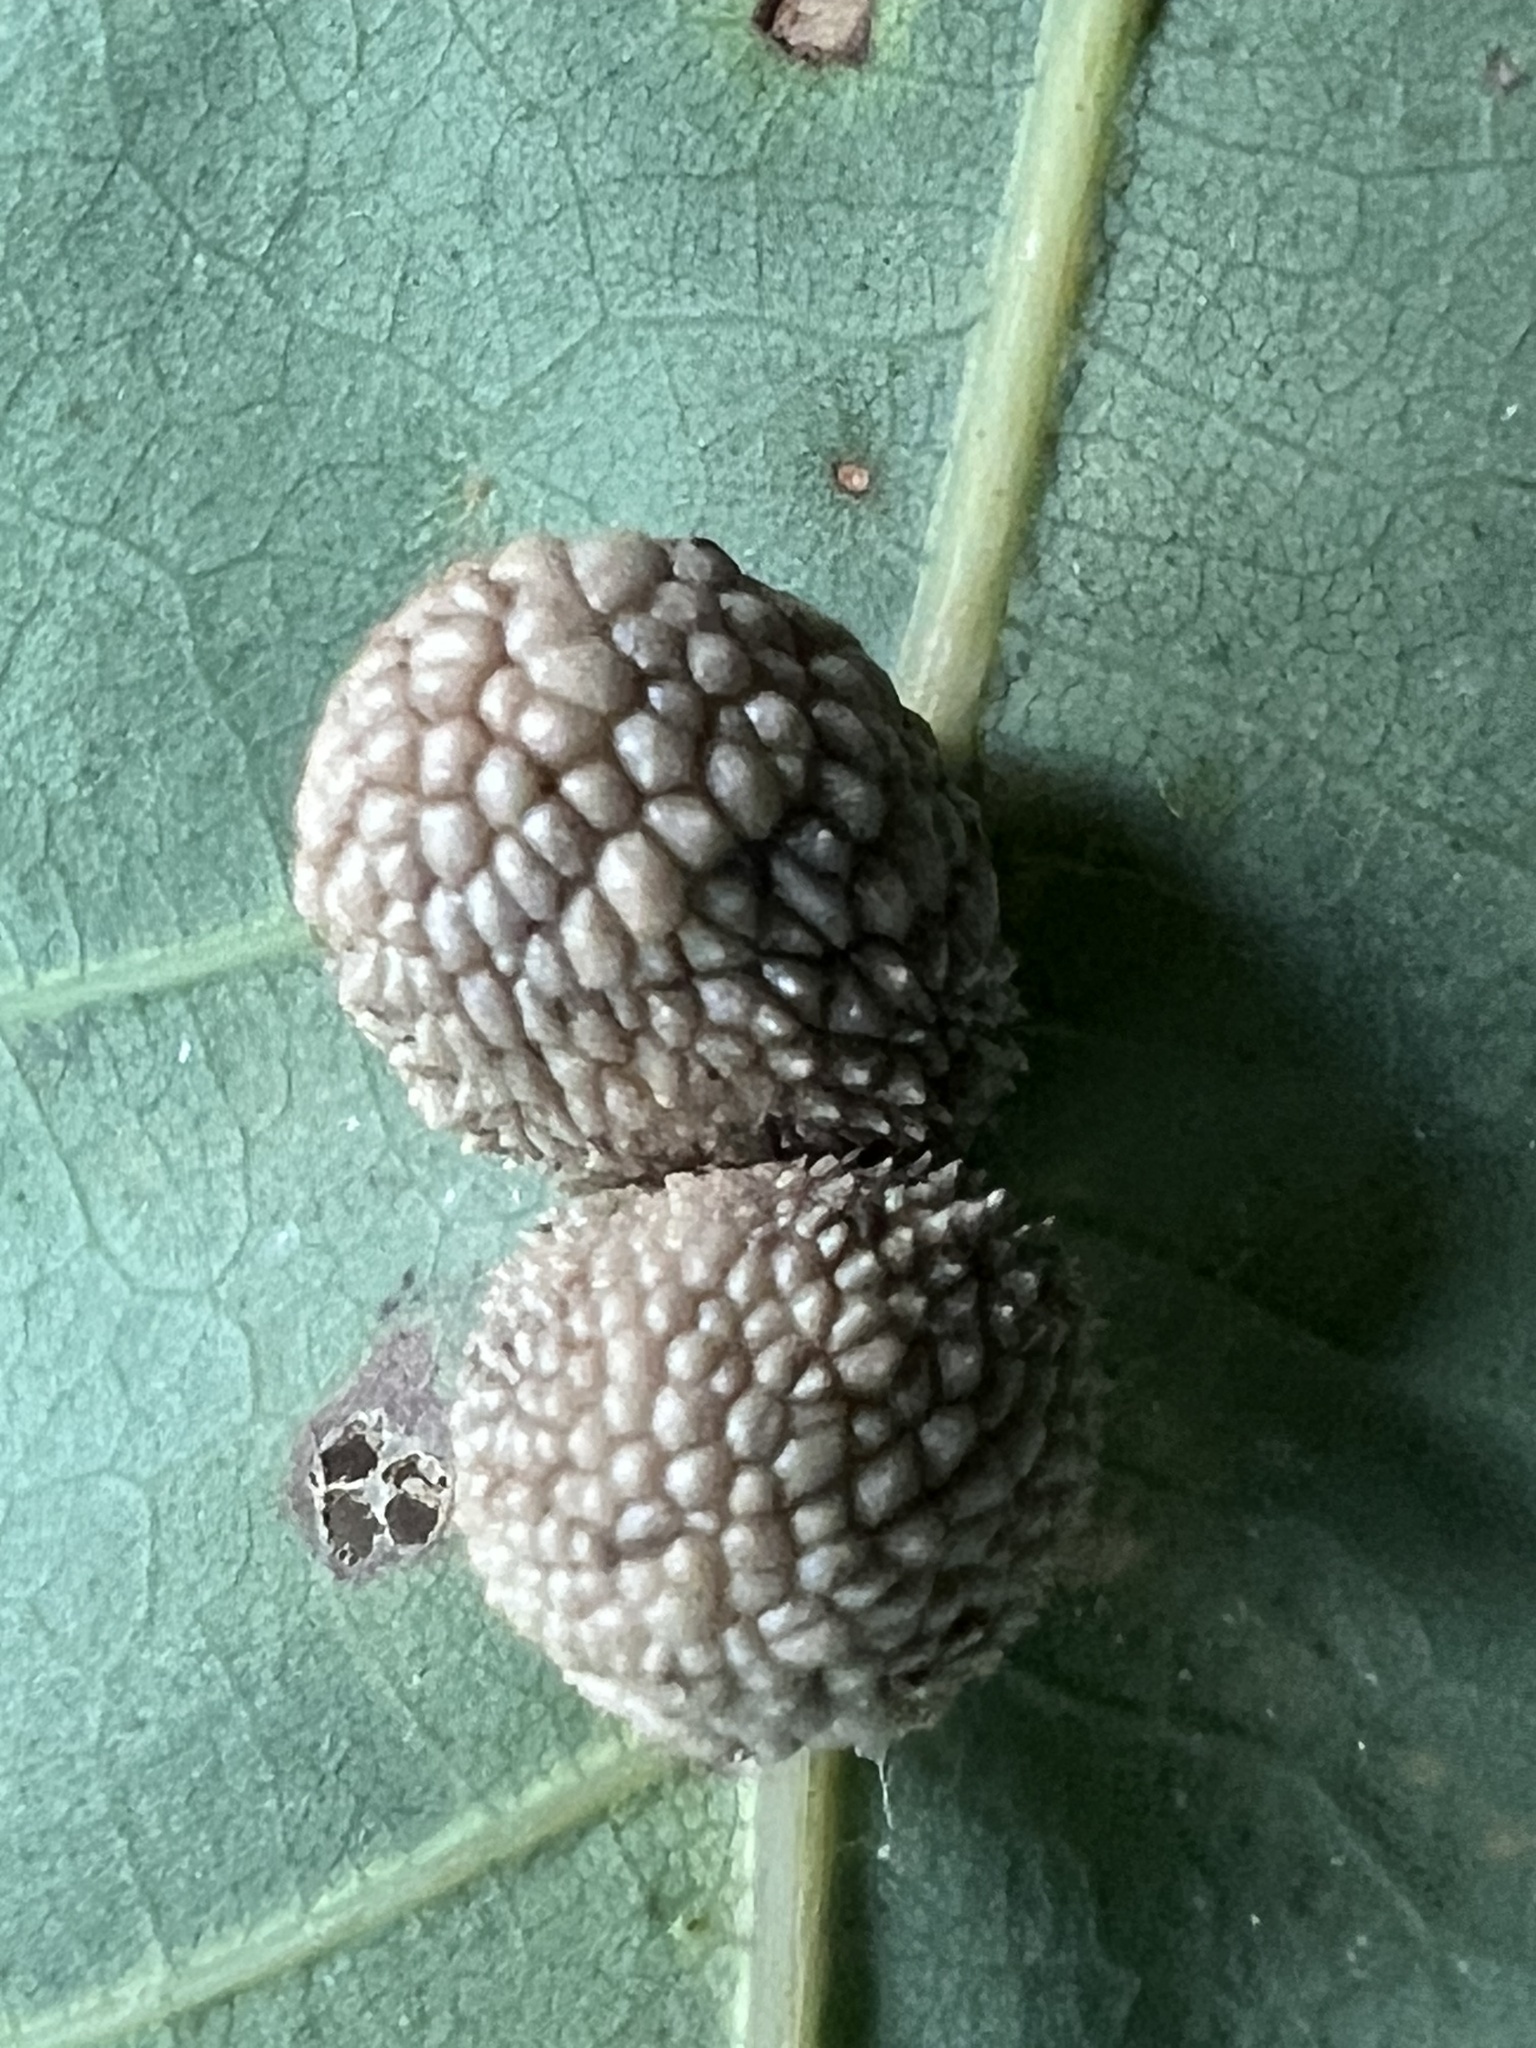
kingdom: Animalia
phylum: Arthropoda
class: Insecta
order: Hymenoptera
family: Cynipidae
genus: Acraspis
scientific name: Acraspis
